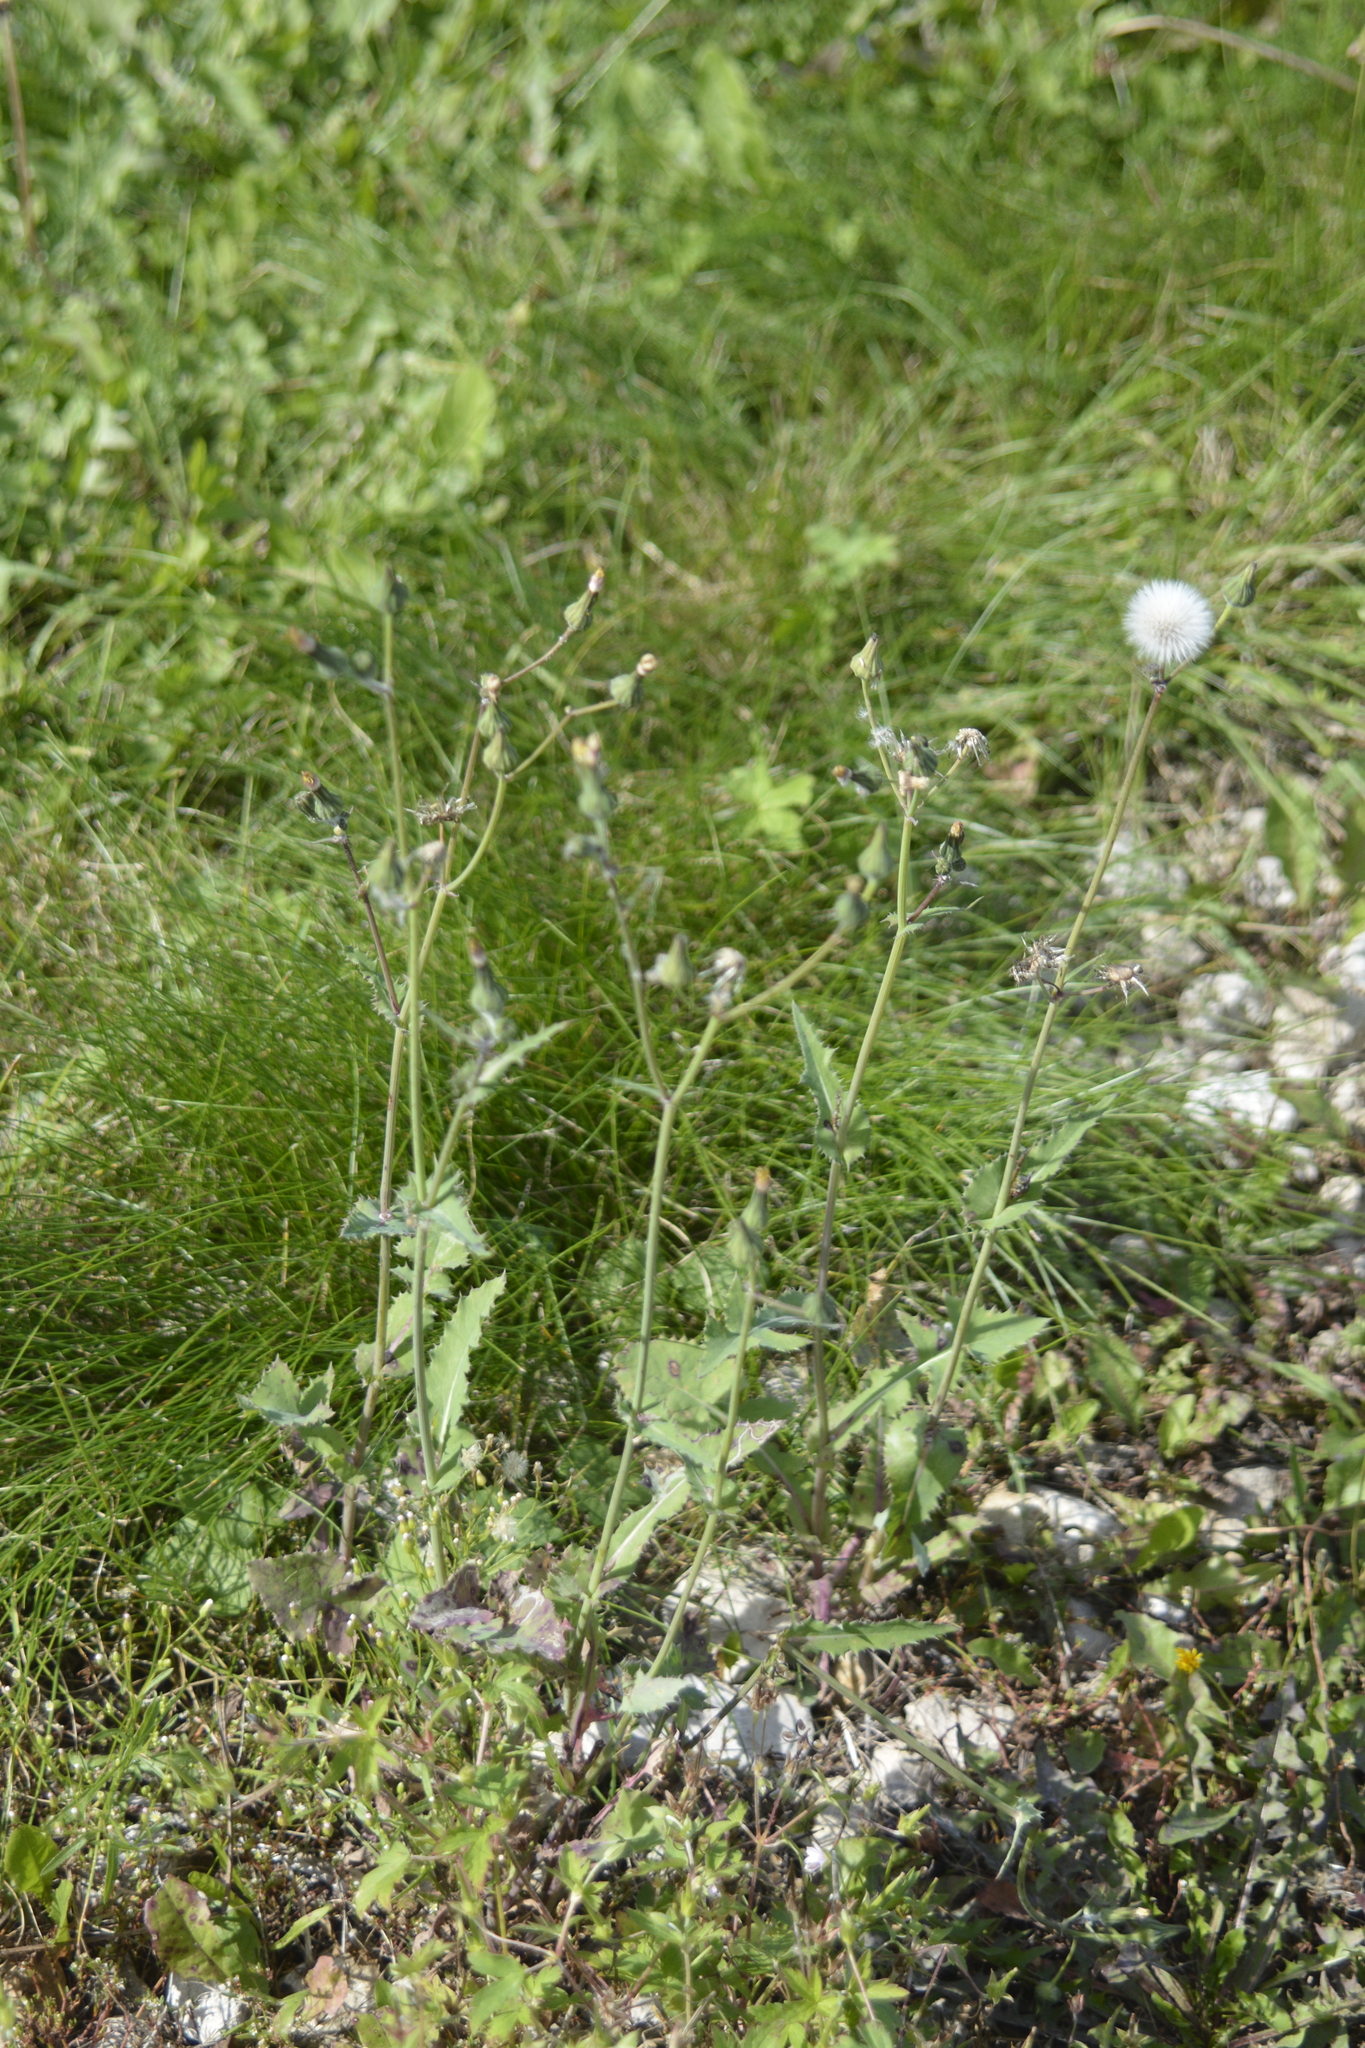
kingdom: Plantae
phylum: Tracheophyta
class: Magnoliopsida
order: Asterales
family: Asteraceae
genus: Sonchus
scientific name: Sonchus oleraceus
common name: Common sowthistle
